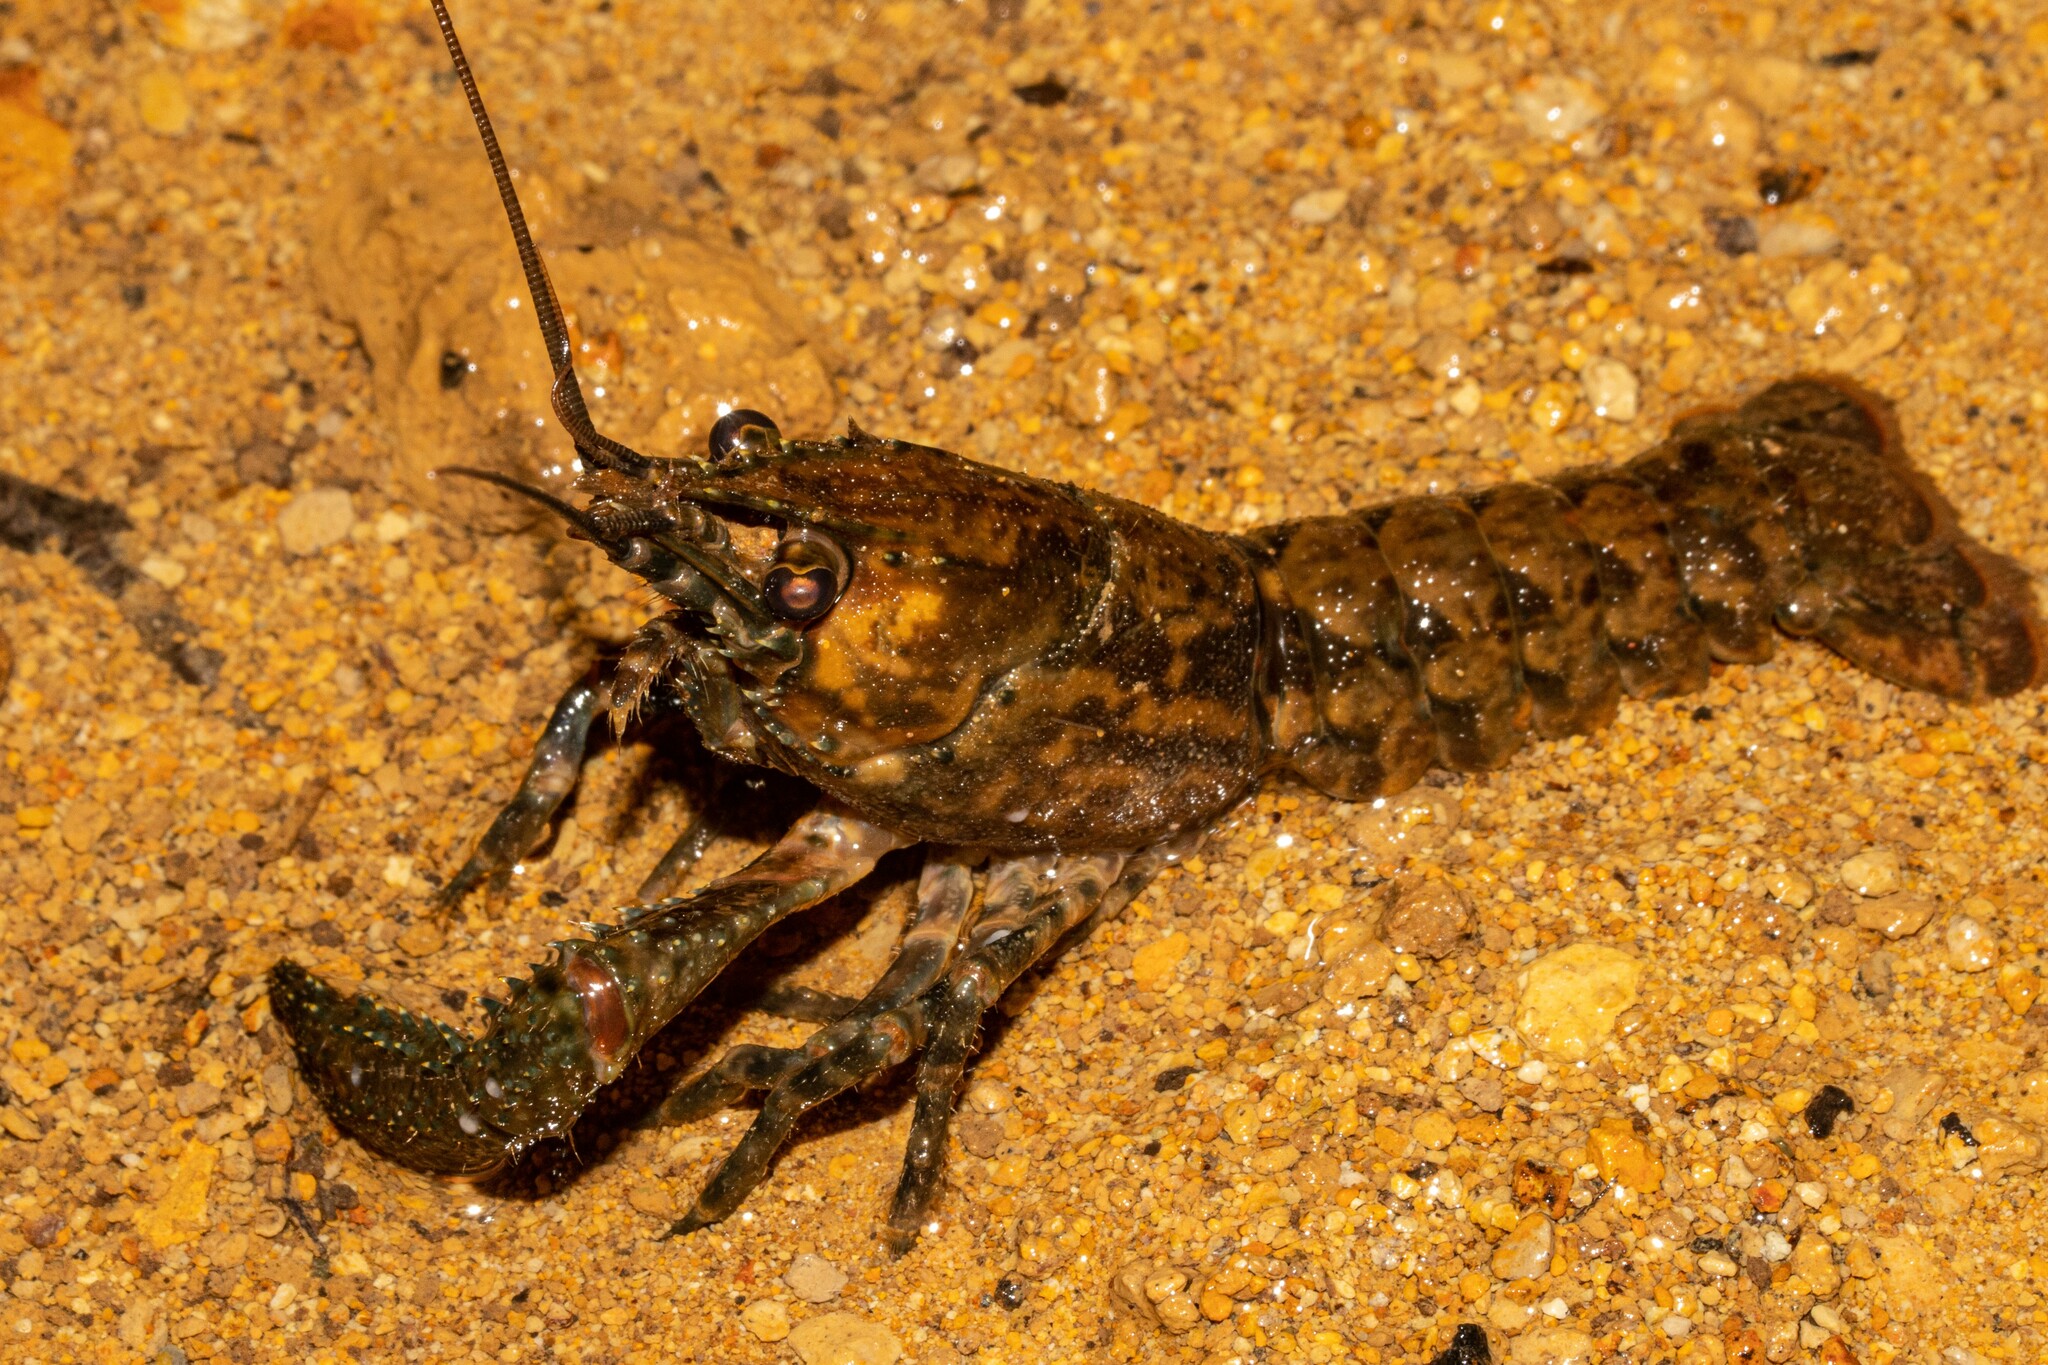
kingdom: Animalia
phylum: Arthropoda
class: Malacostraca
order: Decapoda
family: Parastacidae
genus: Paranephrops
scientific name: Paranephrops planifrons
